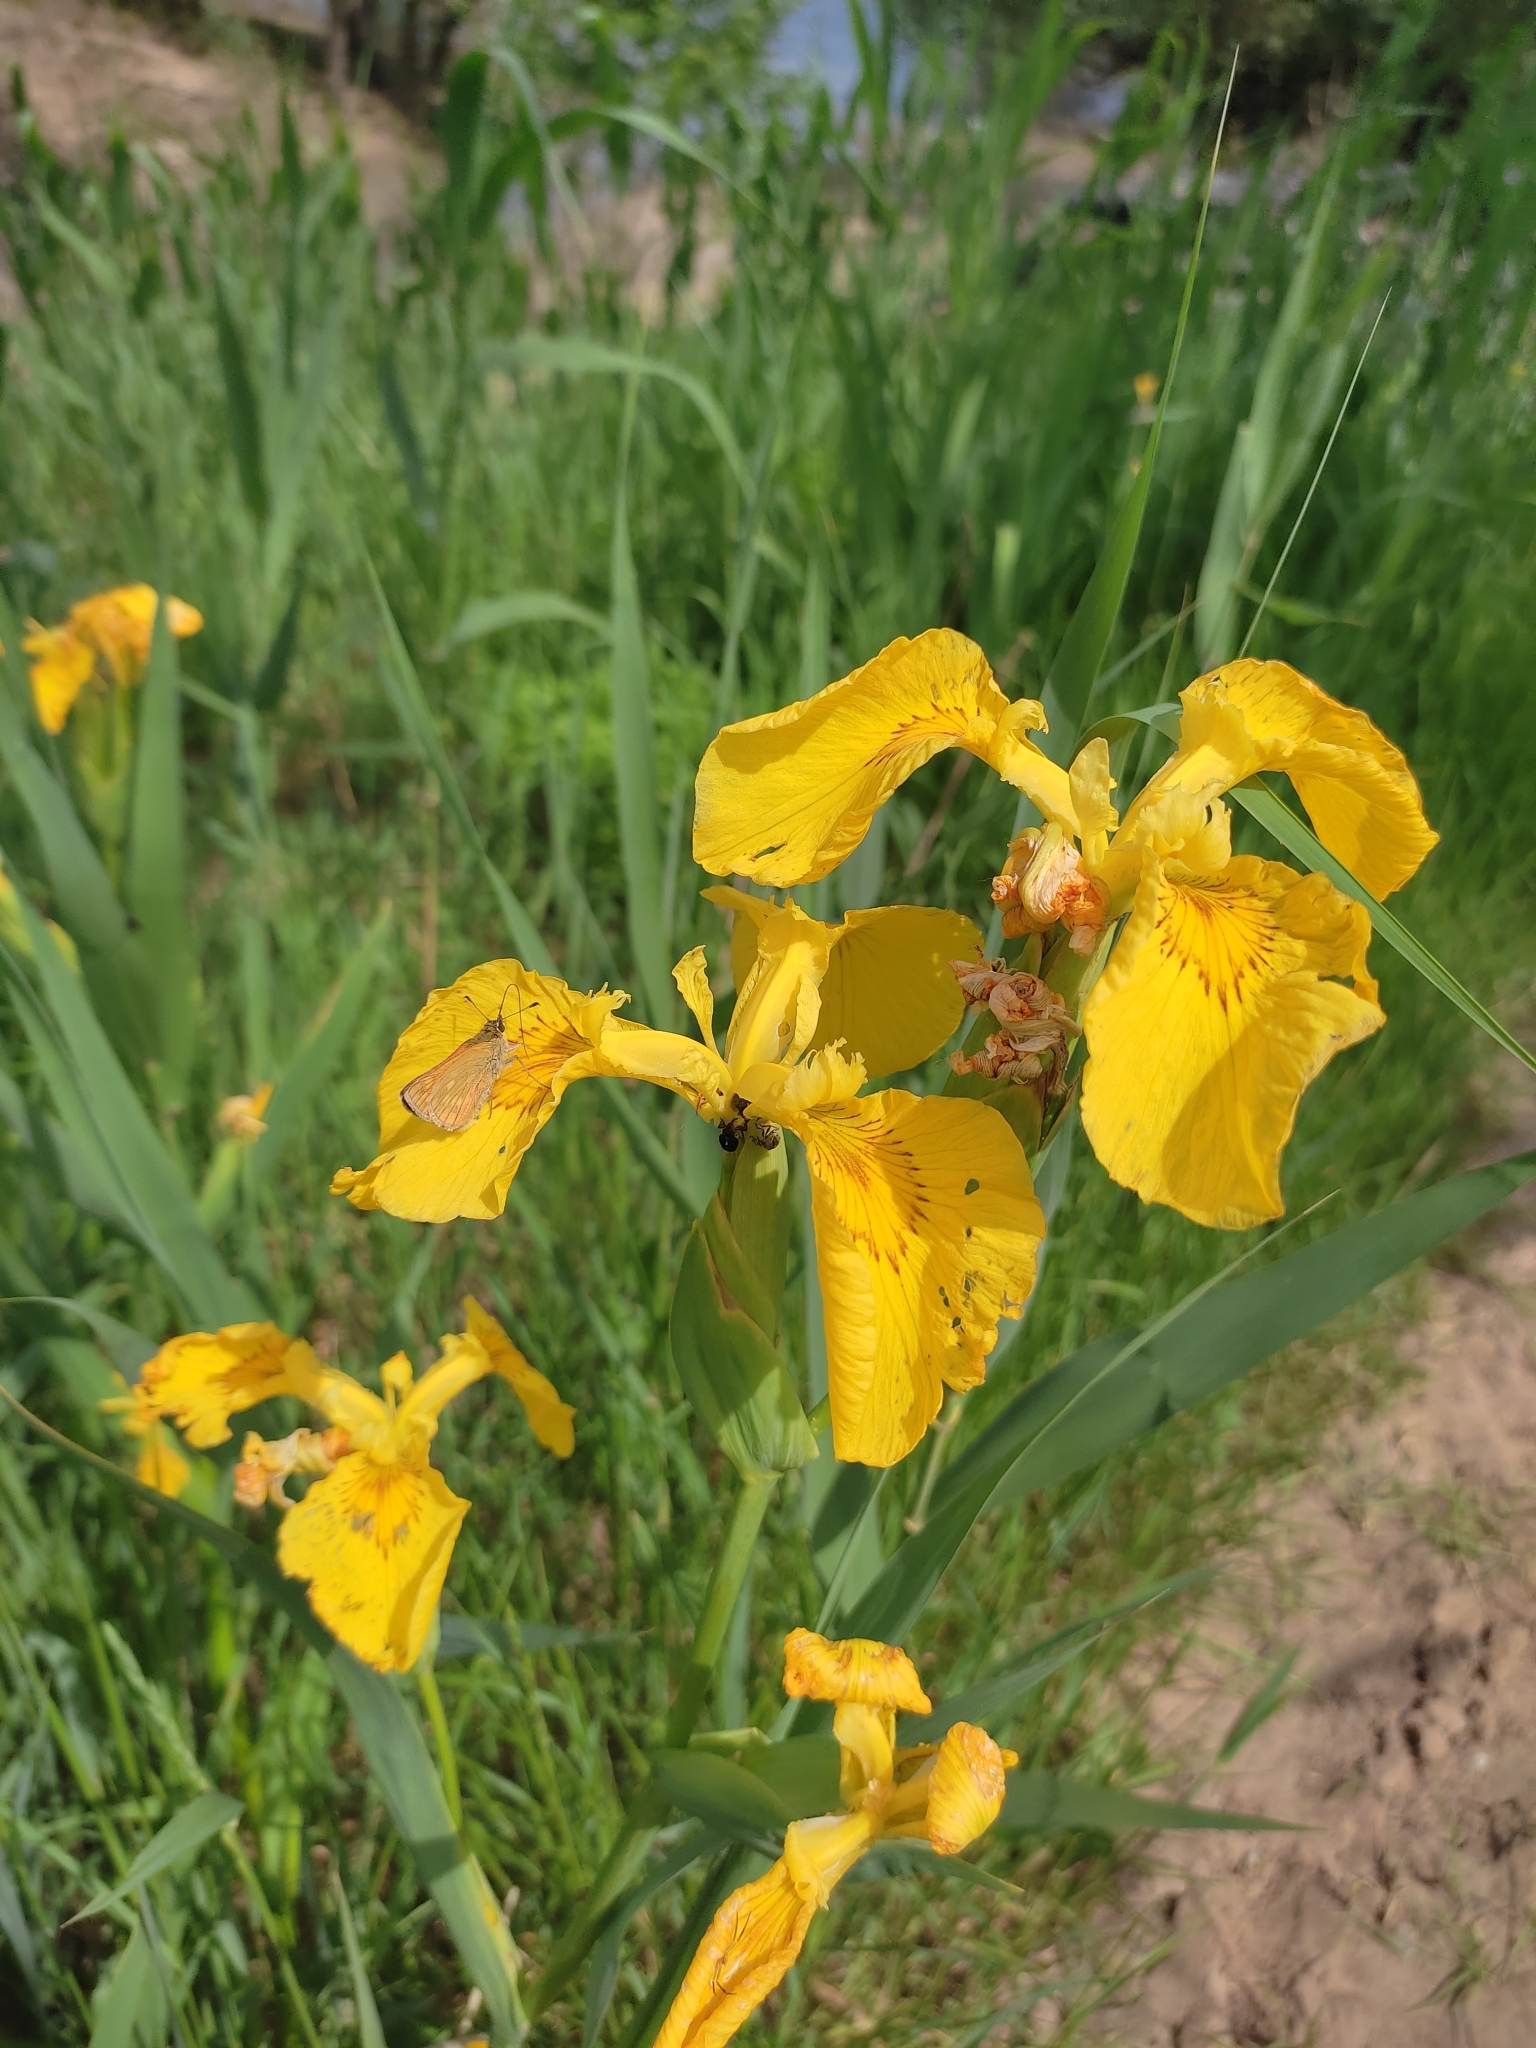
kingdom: Plantae
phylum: Tracheophyta
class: Liliopsida
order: Asparagales
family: Iridaceae
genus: Iris
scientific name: Iris pseudacorus
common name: Yellow flag
